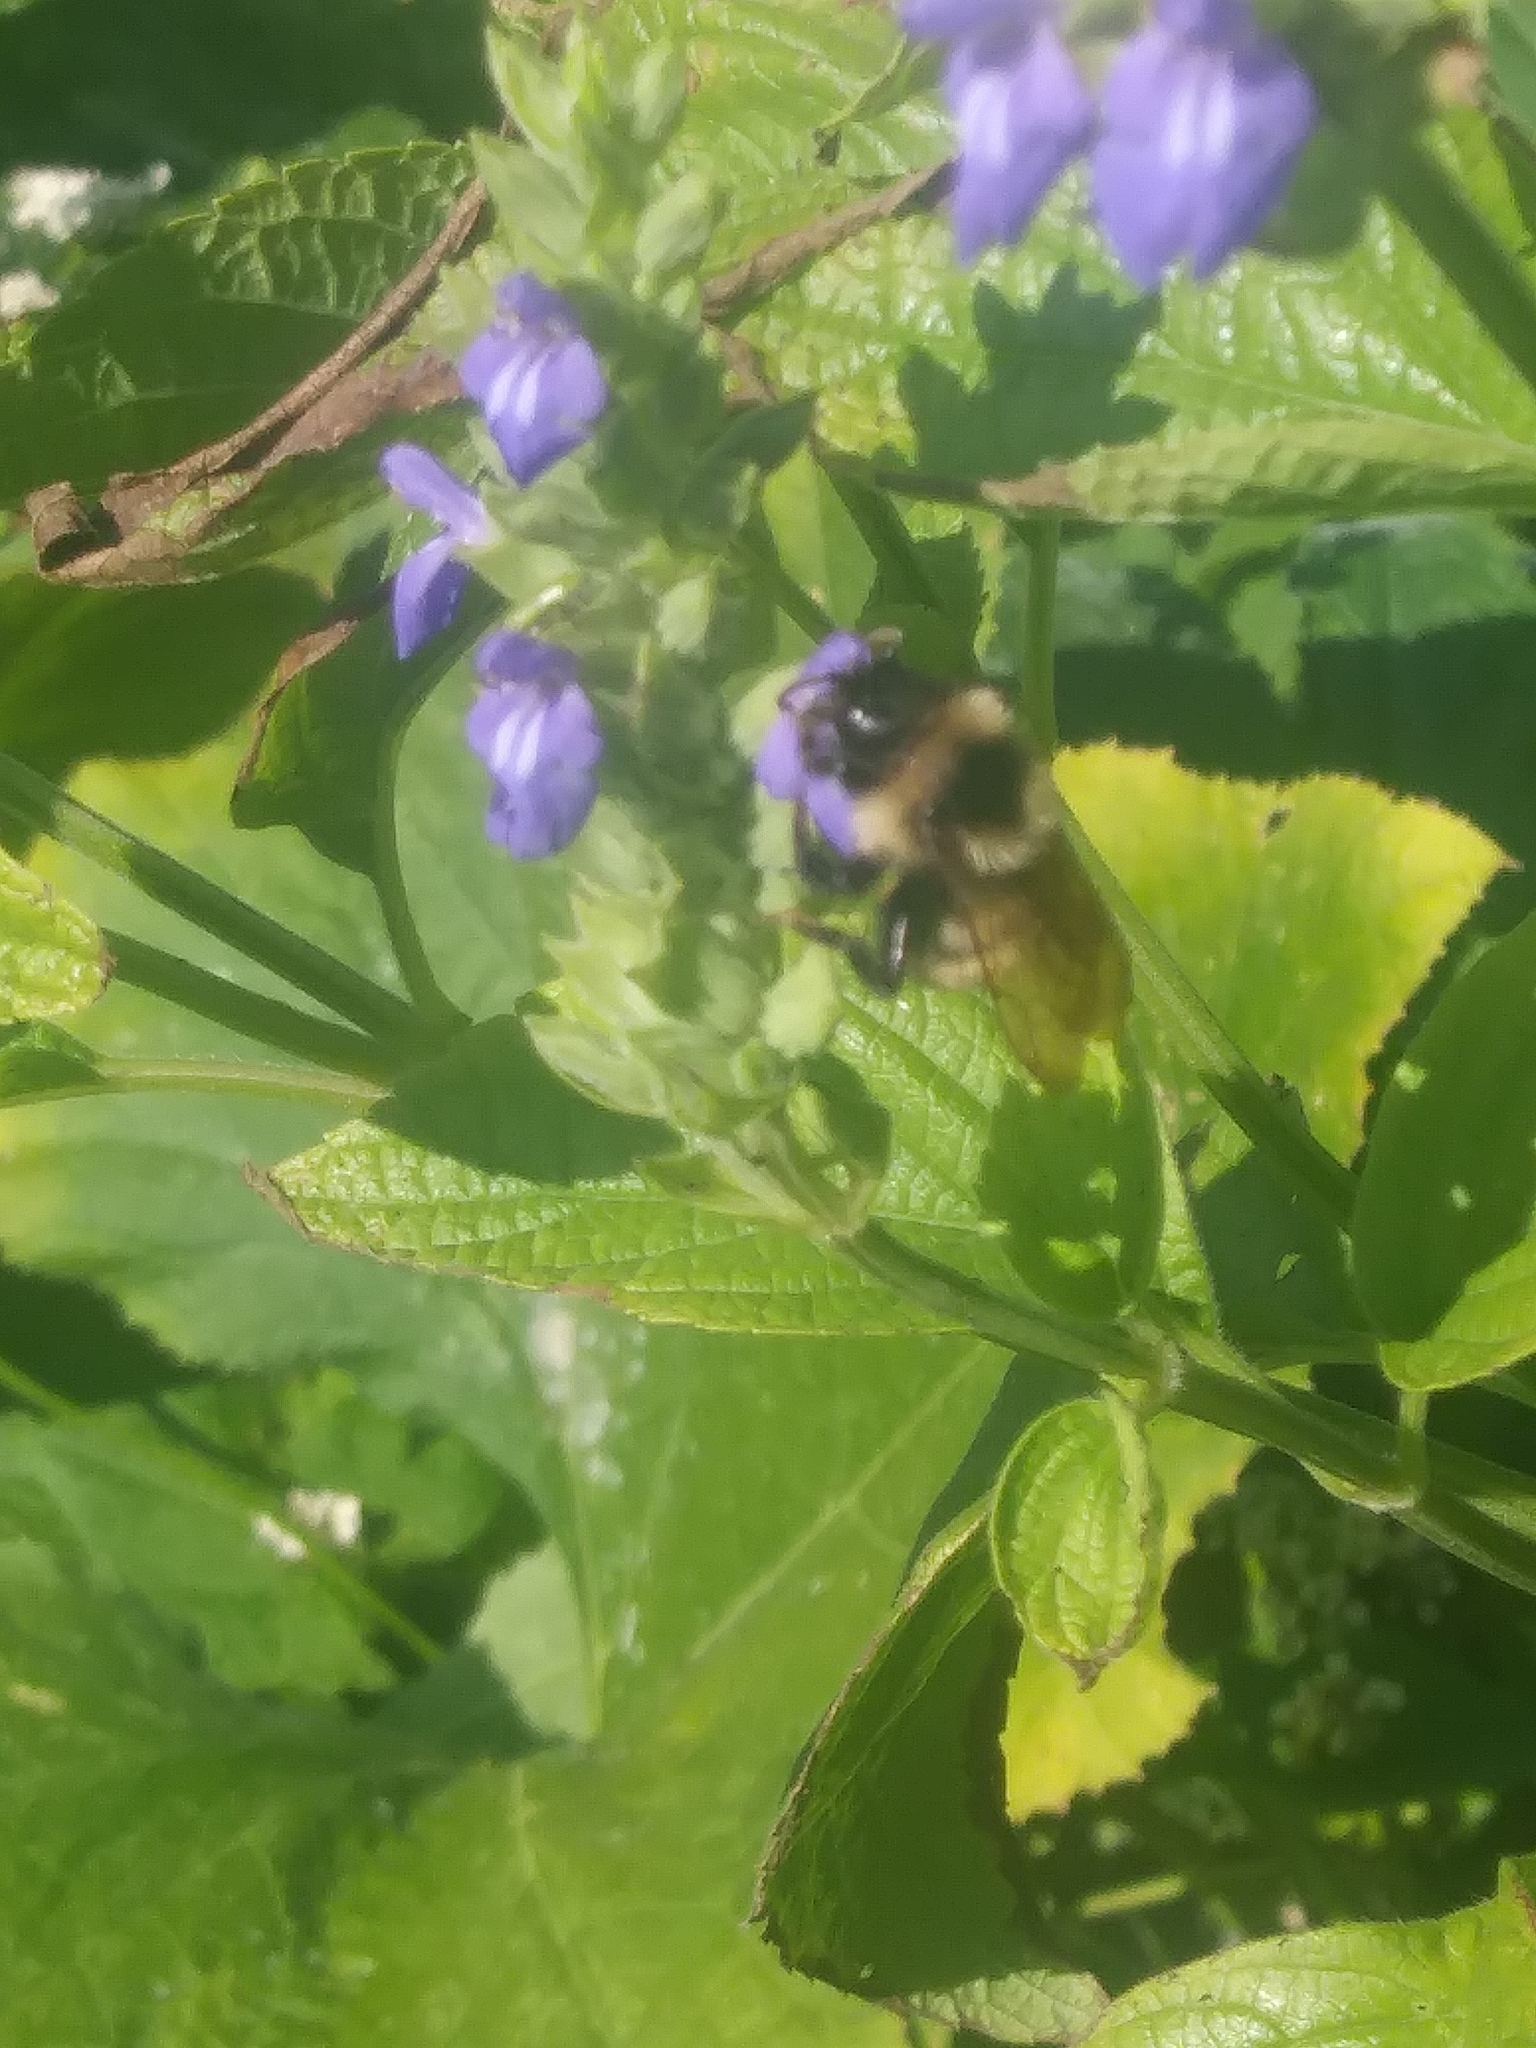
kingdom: Animalia
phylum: Arthropoda
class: Insecta
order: Hymenoptera
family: Apidae
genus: Bombus
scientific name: Bombus citrinus
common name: Lemon cuckoo bumble bee
